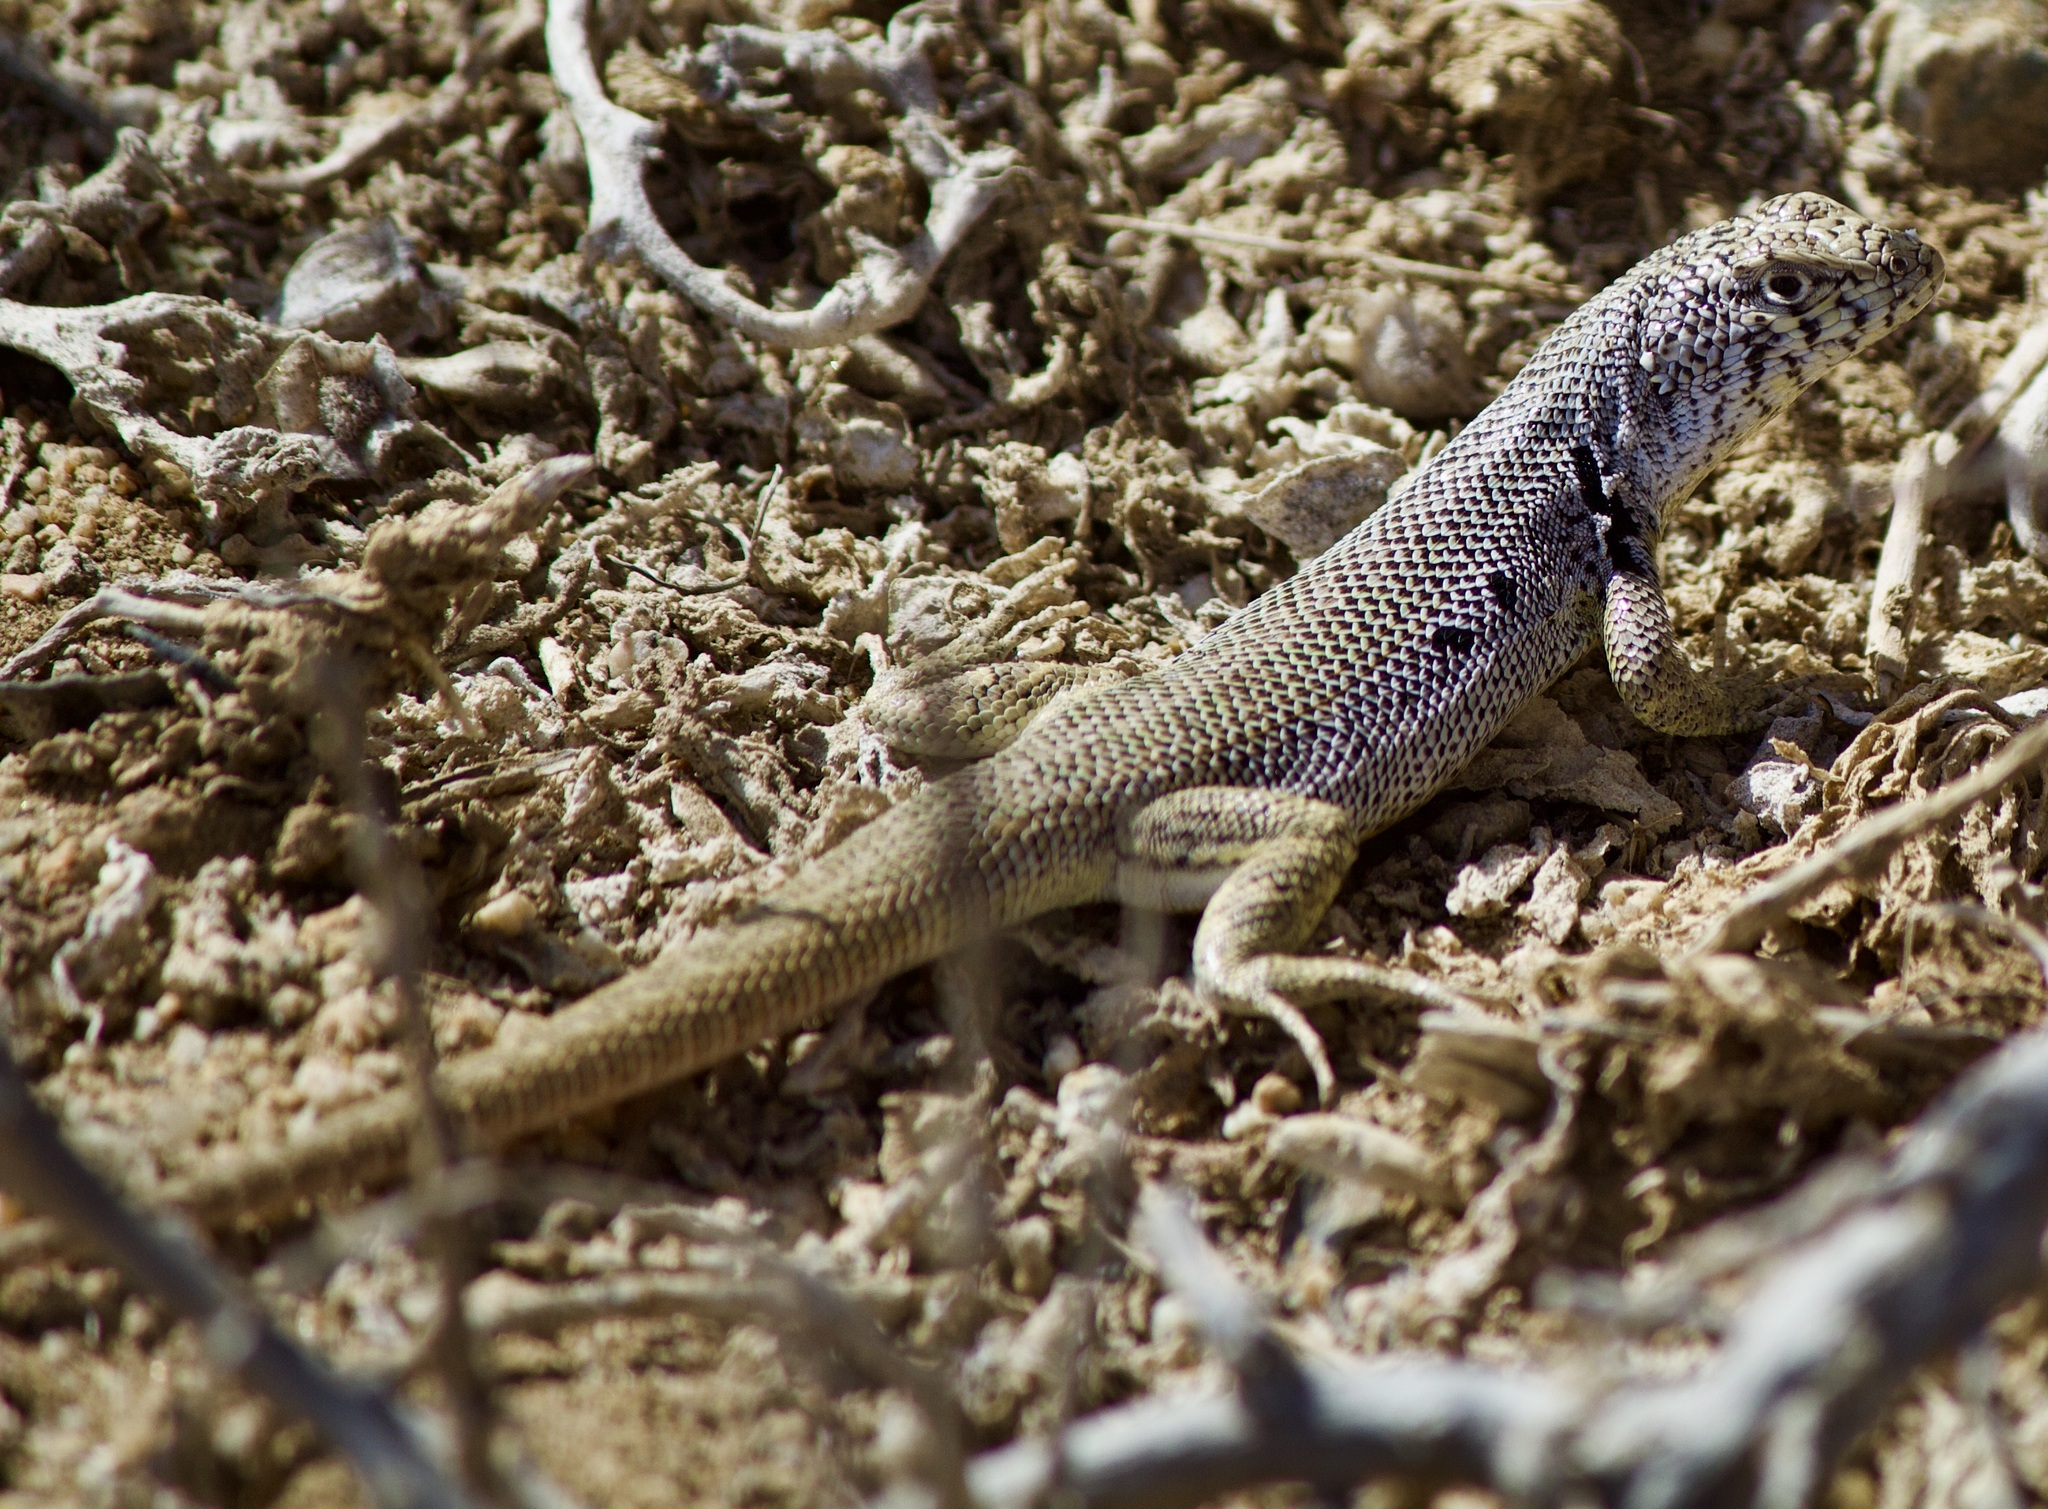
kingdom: Animalia
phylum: Chordata
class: Squamata
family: Liolaemidae
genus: Liolaemus
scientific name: Liolaemus nigromaculatus
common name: Many-spotted tree iguana
